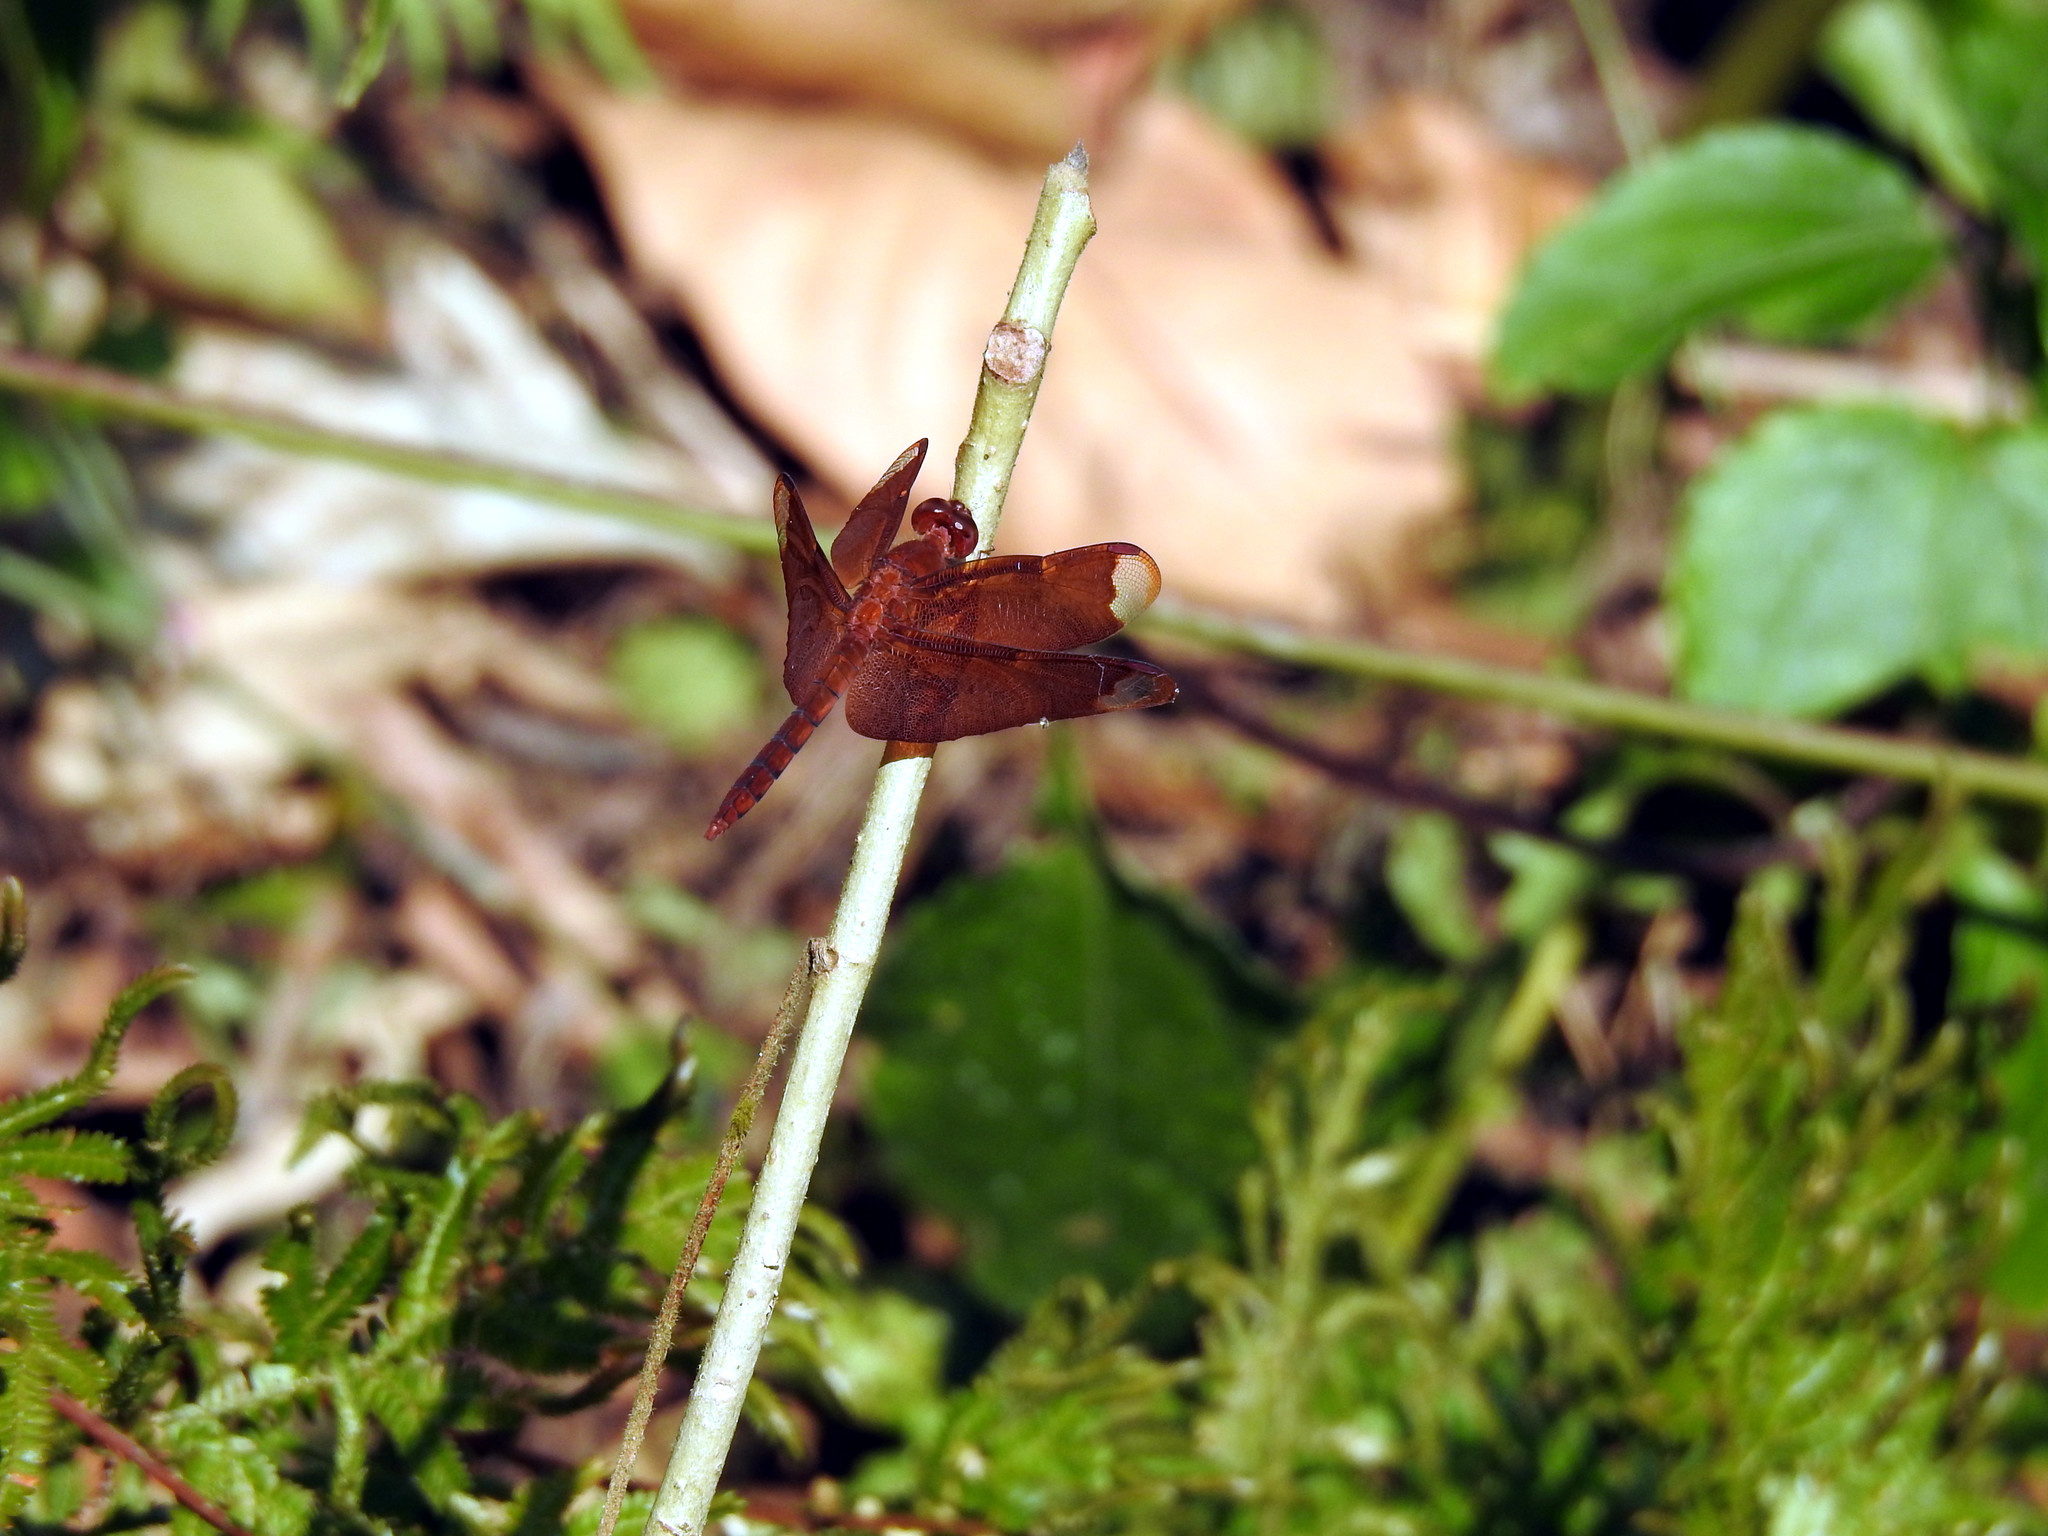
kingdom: Animalia
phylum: Arthropoda
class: Insecta
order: Odonata
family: Libellulidae
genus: Neurothemis
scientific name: Neurothemis fulvia
